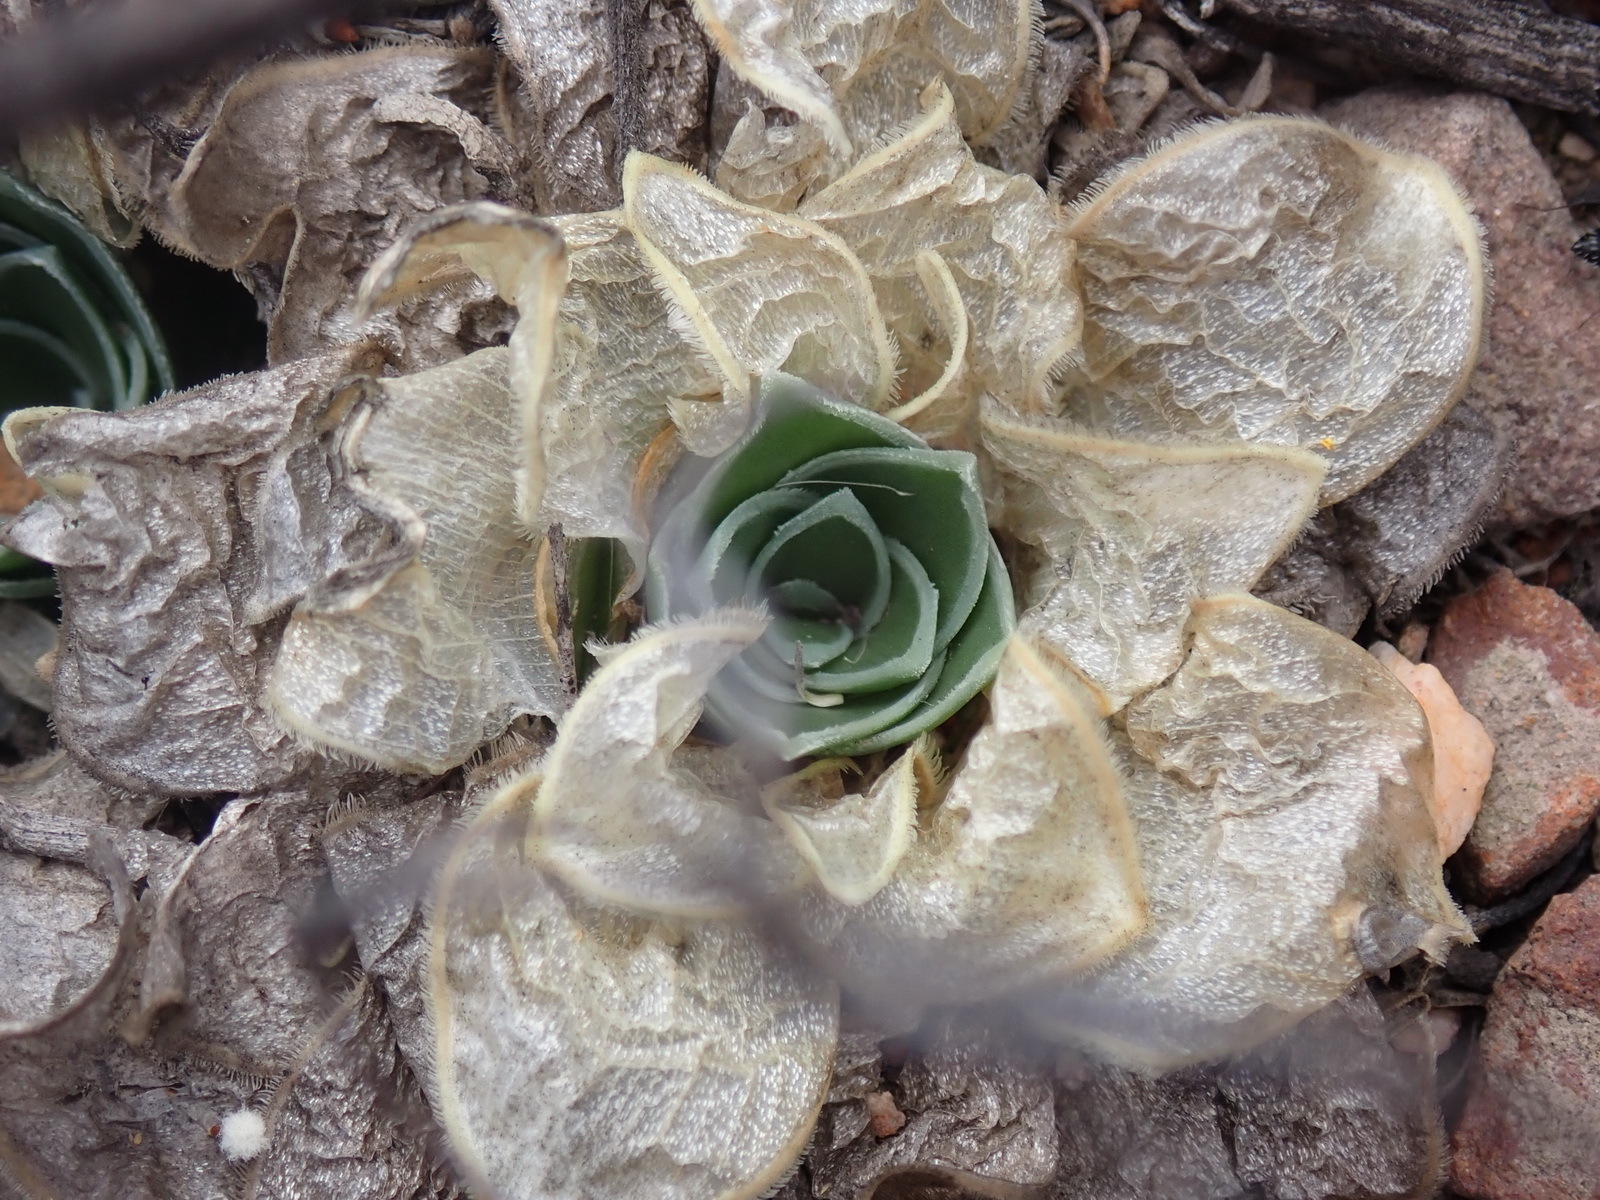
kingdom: Plantae
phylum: Tracheophyta
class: Liliopsida
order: Asparagales
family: Asparagaceae
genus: Drimia
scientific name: Drimia ciliata
